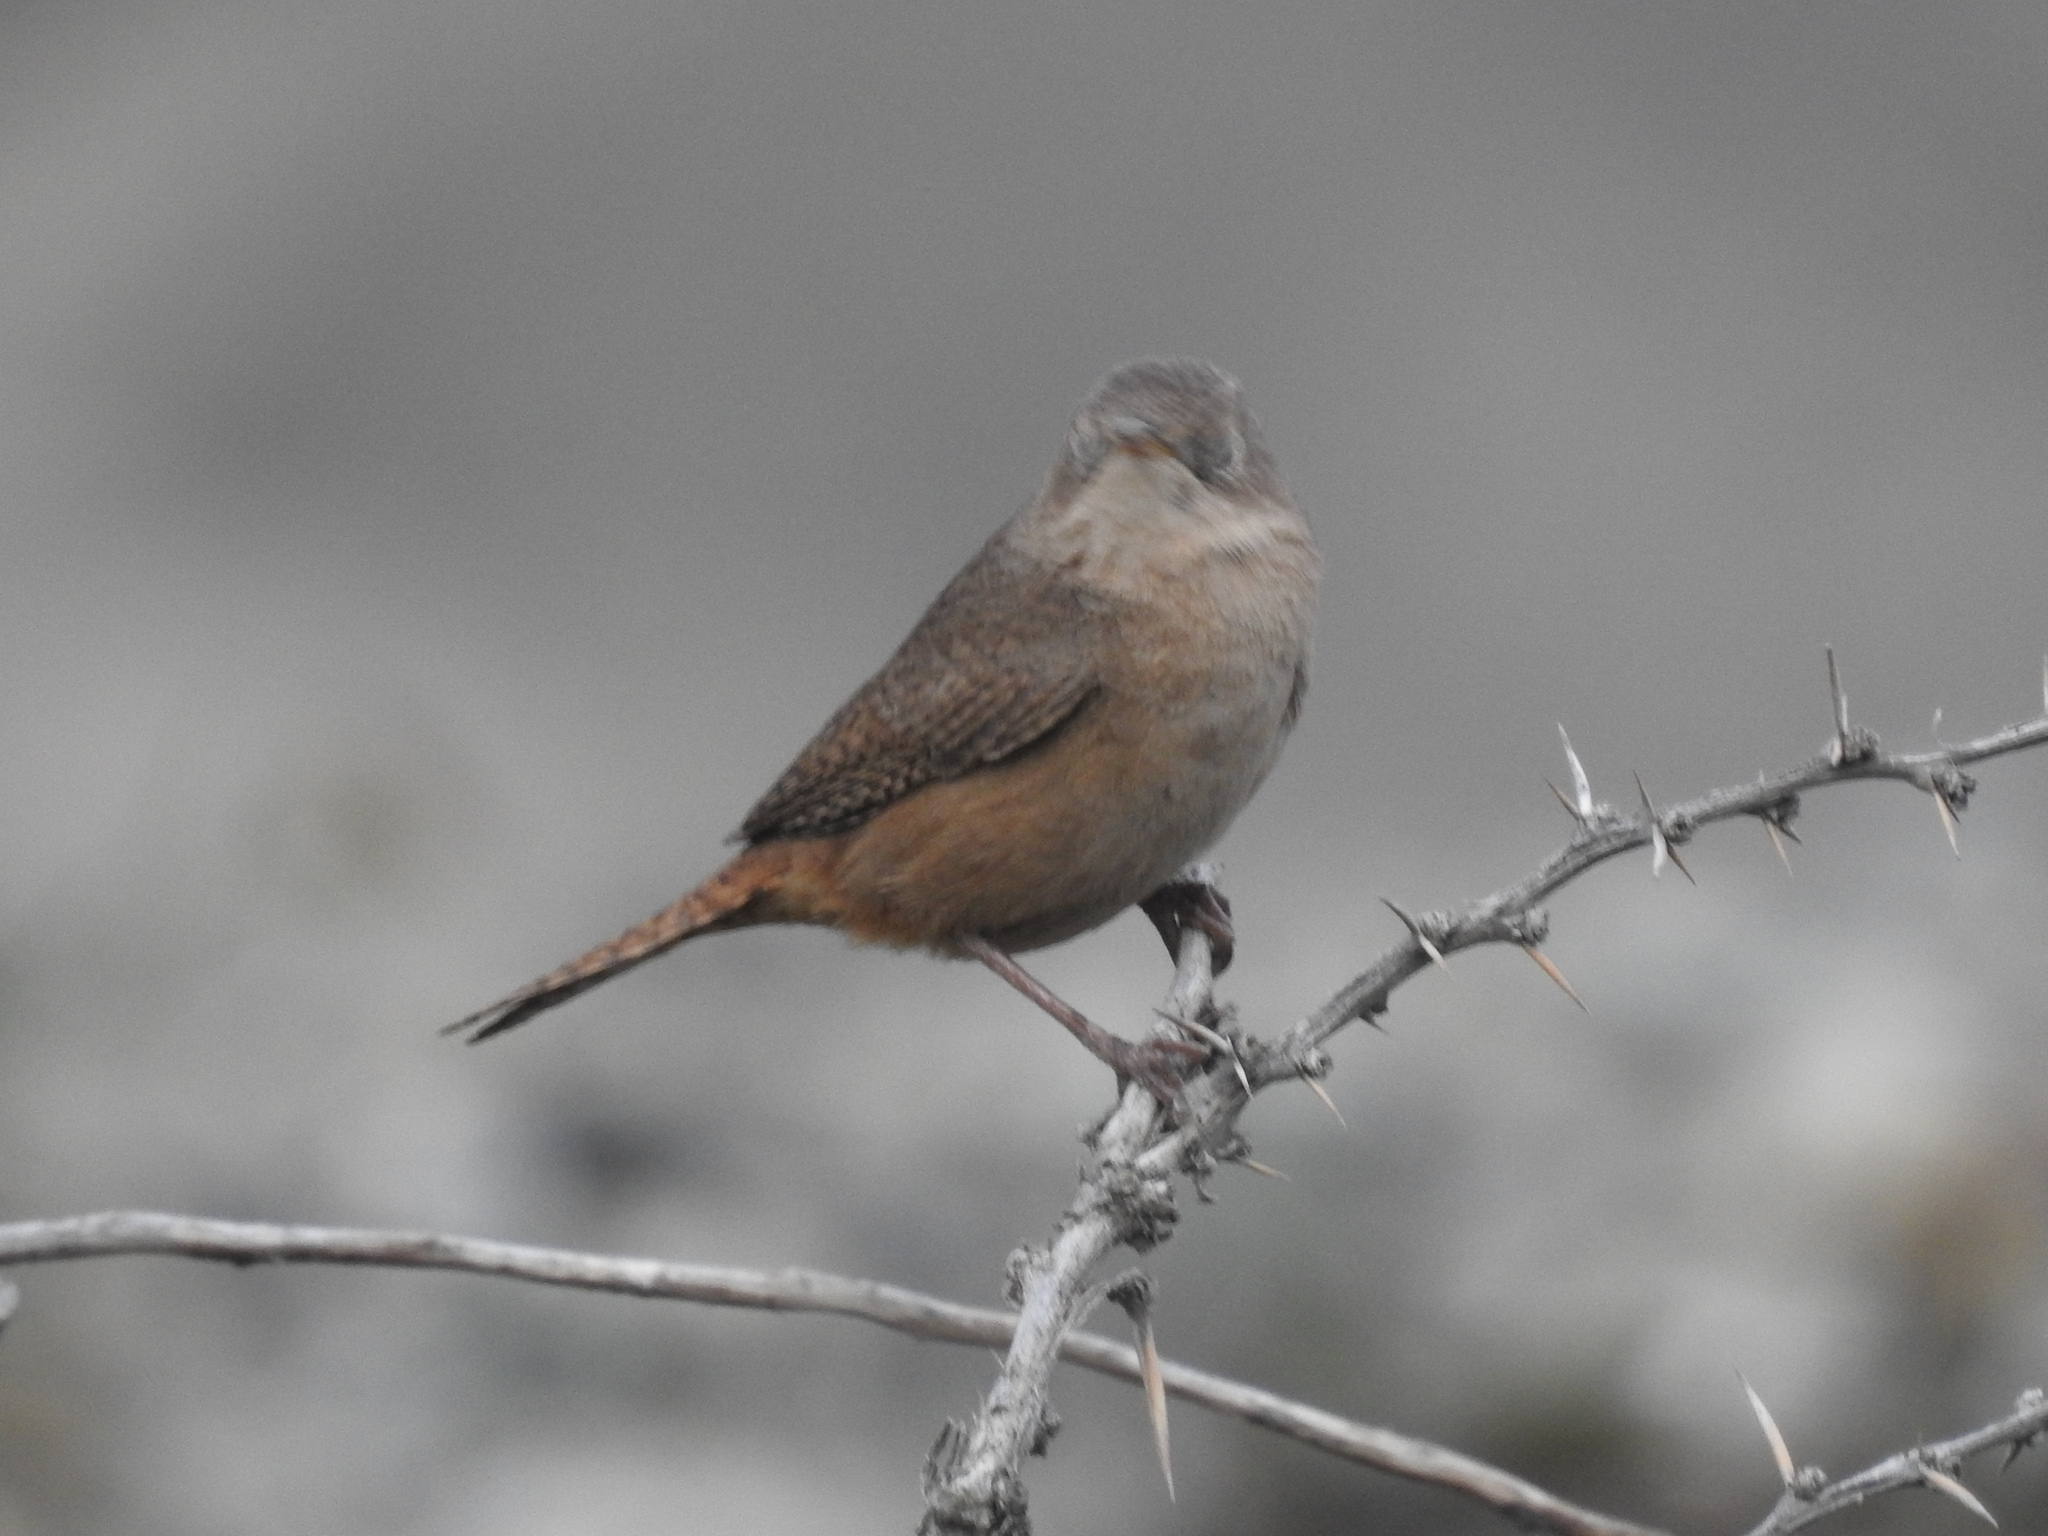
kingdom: Animalia
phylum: Chordata
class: Aves
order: Passeriformes
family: Troglodytidae
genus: Troglodytes
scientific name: Troglodytes aedon
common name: House wren
